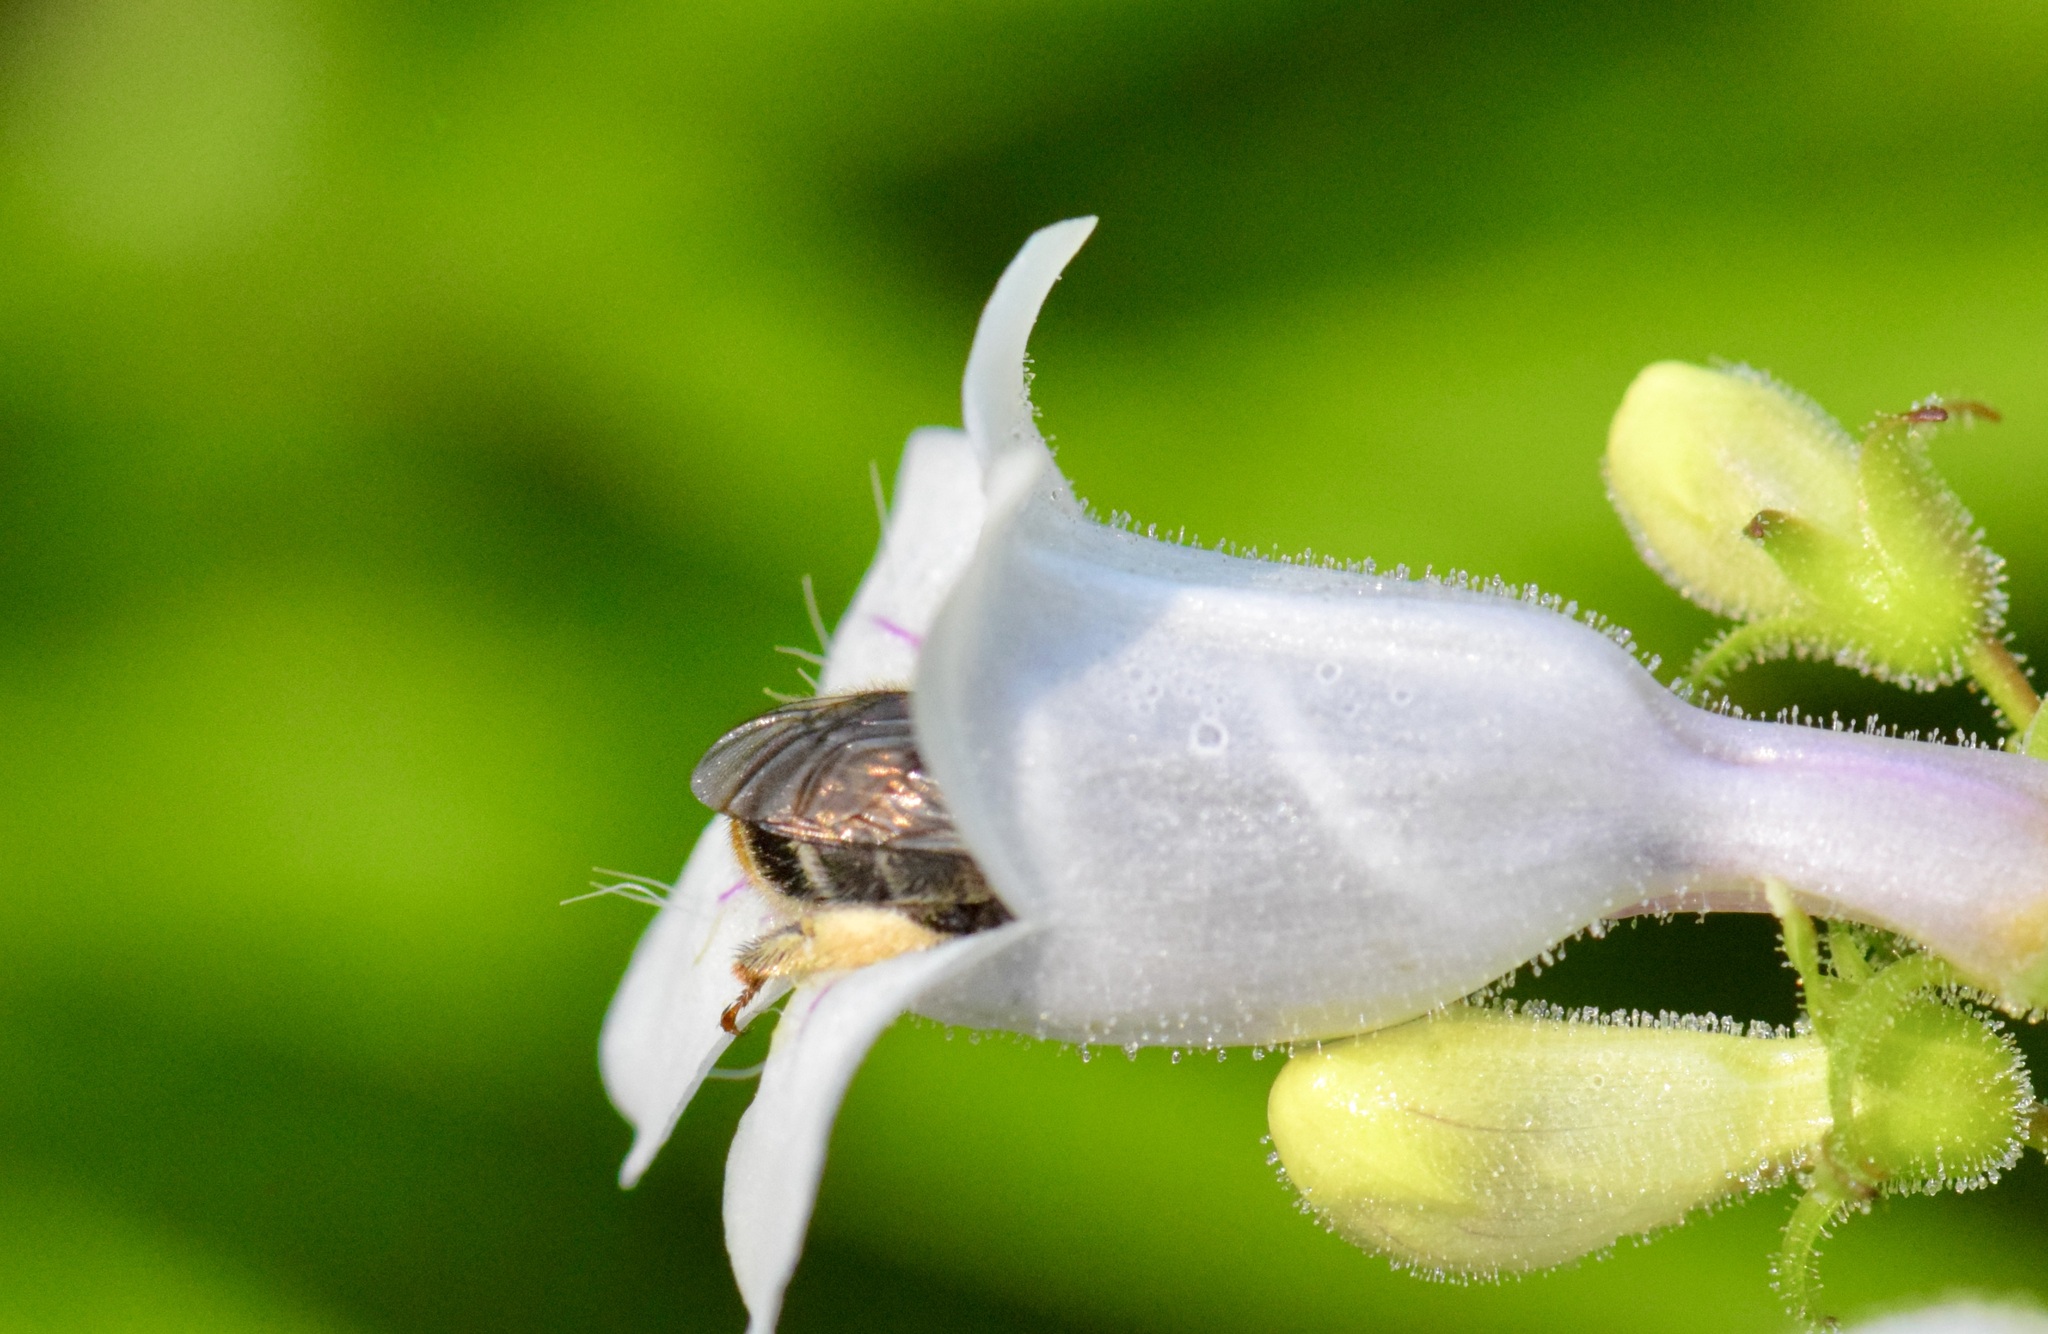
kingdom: Animalia
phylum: Arthropoda
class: Insecta
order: Hymenoptera
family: Apidae
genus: Anthophora
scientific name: Anthophora terminalis
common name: Orange-tipped wood-digger bee
